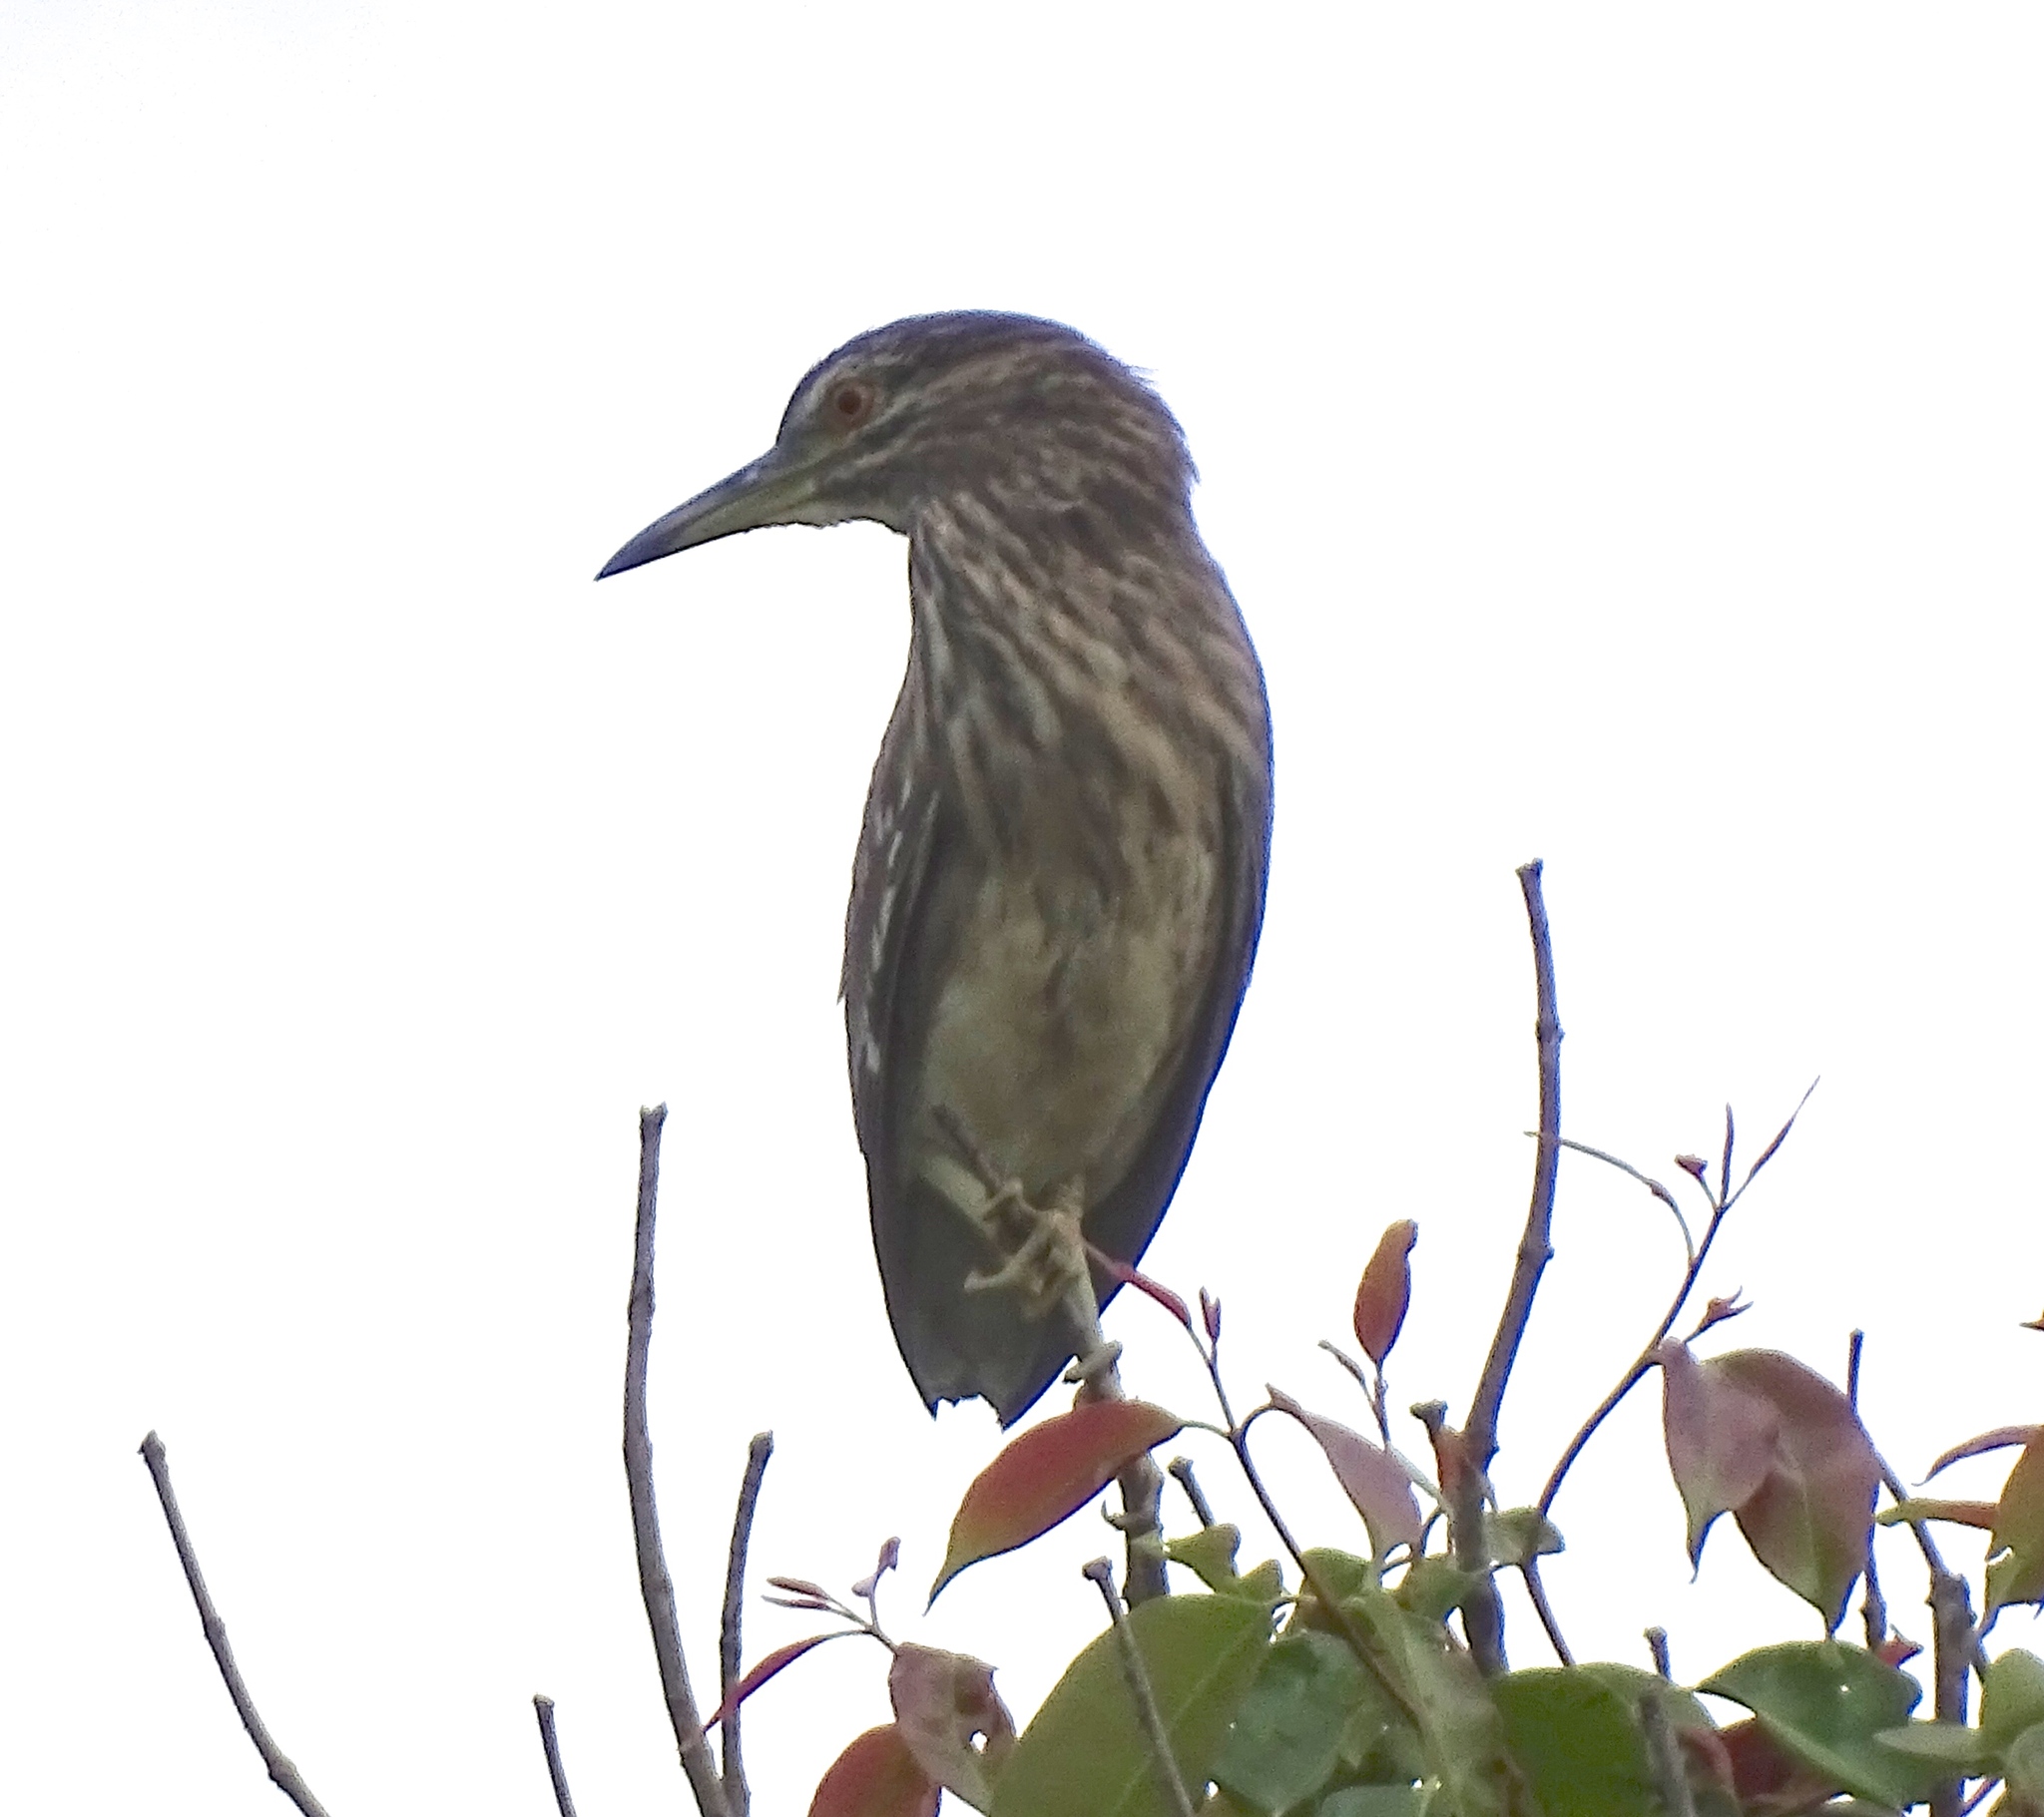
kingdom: Animalia
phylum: Chordata
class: Aves
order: Pelecaniformes
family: Ardeidae
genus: Nycticorax
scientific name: Nycticorax nycticorax
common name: Black-crowned night heron
